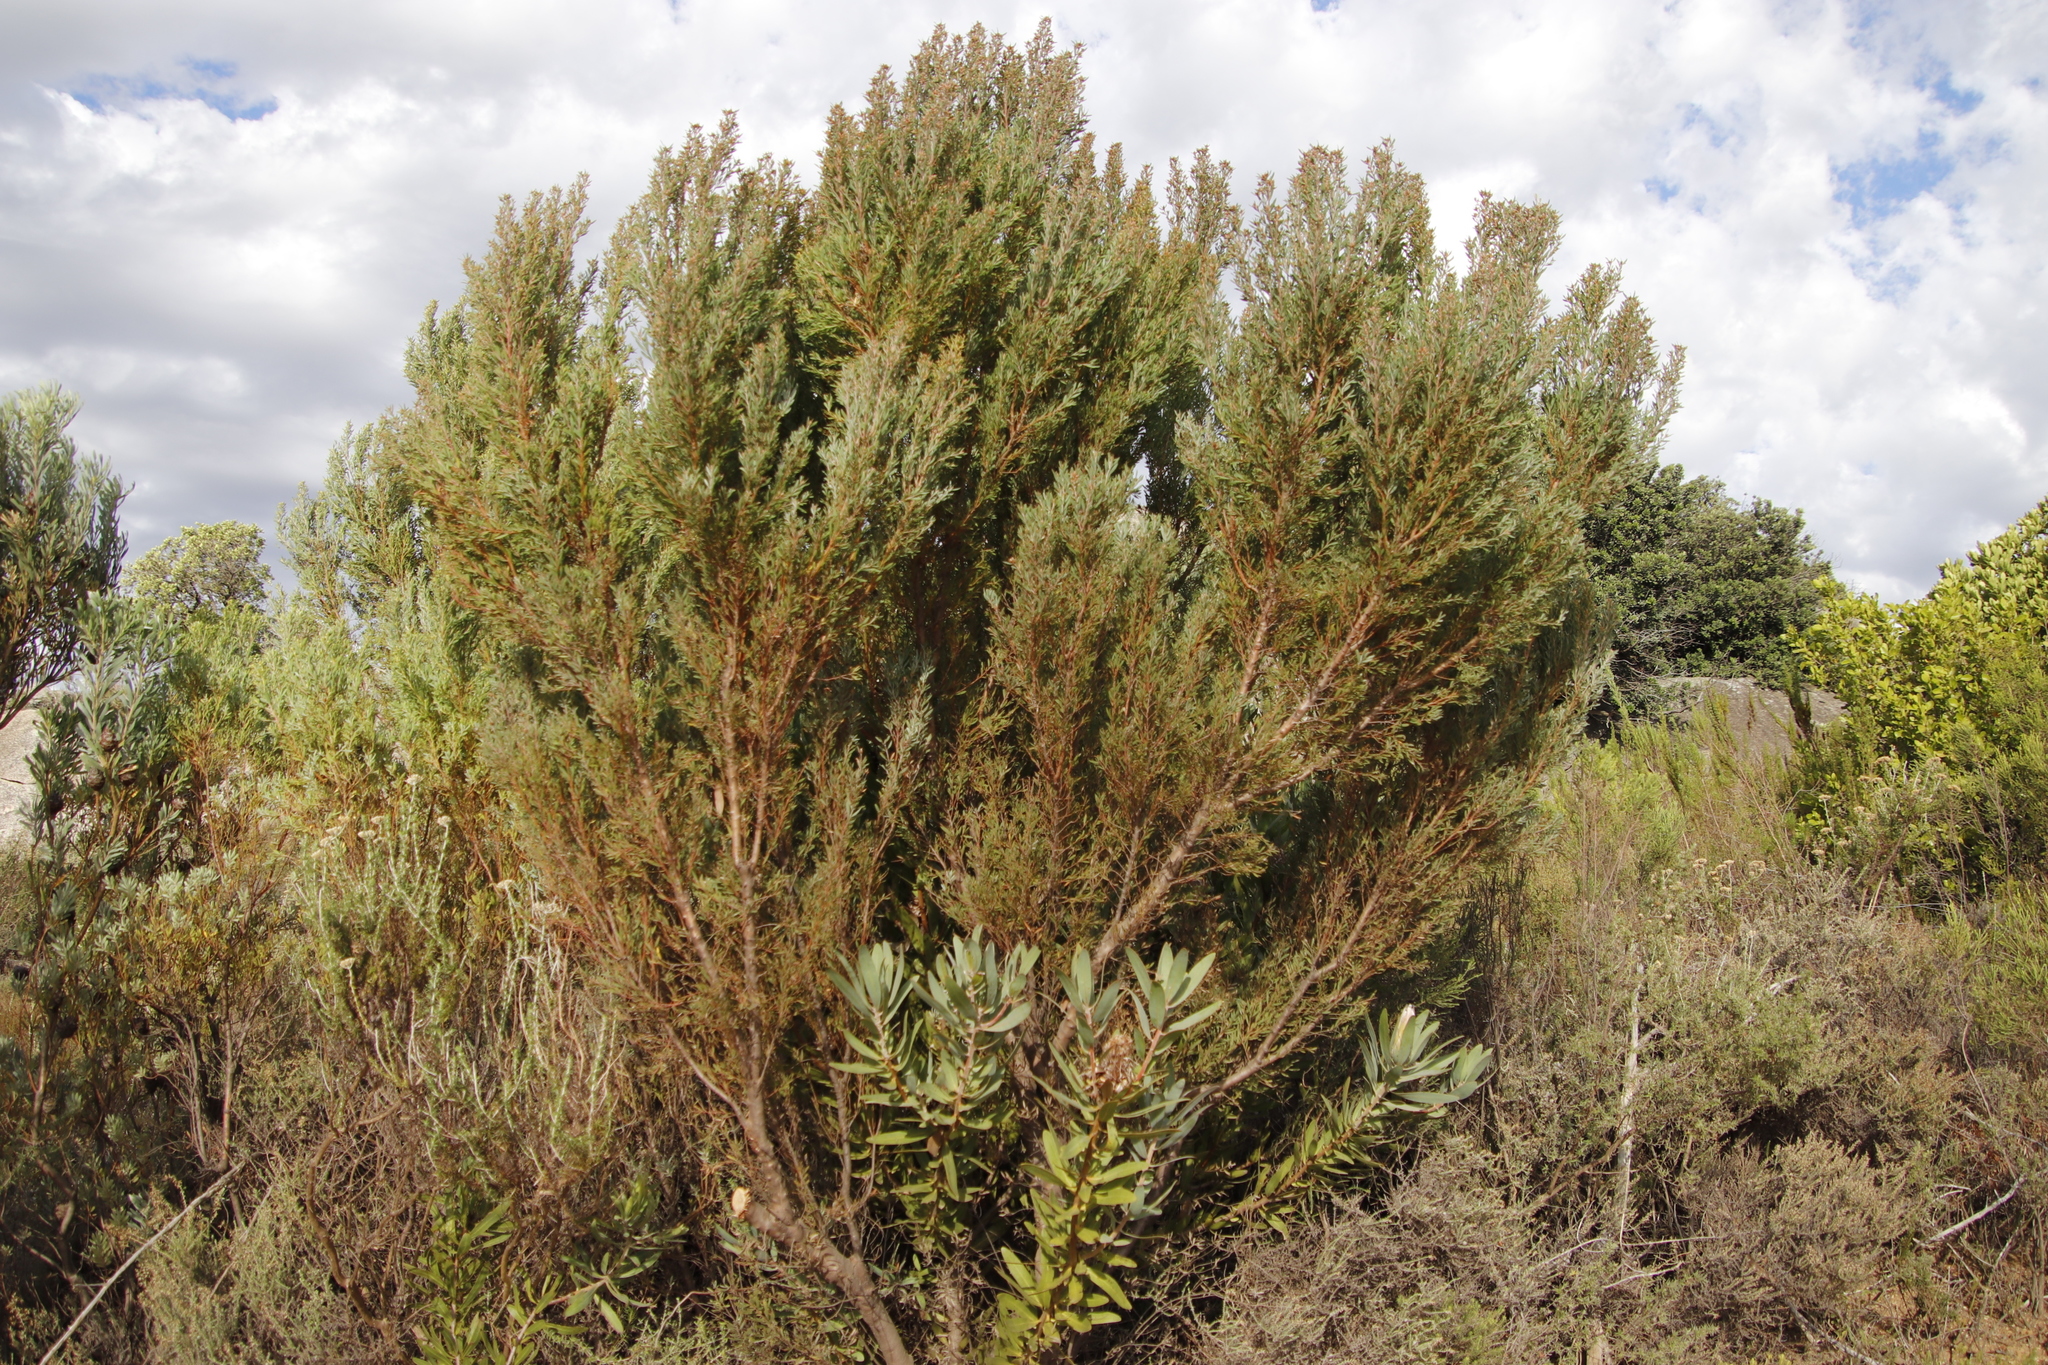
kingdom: Plantae
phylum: Tracheophyta
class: Magnoliopsida
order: Proteales
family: Proteaceae
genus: Leucadendron
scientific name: Leucadendron rubrum
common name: Spinning top
